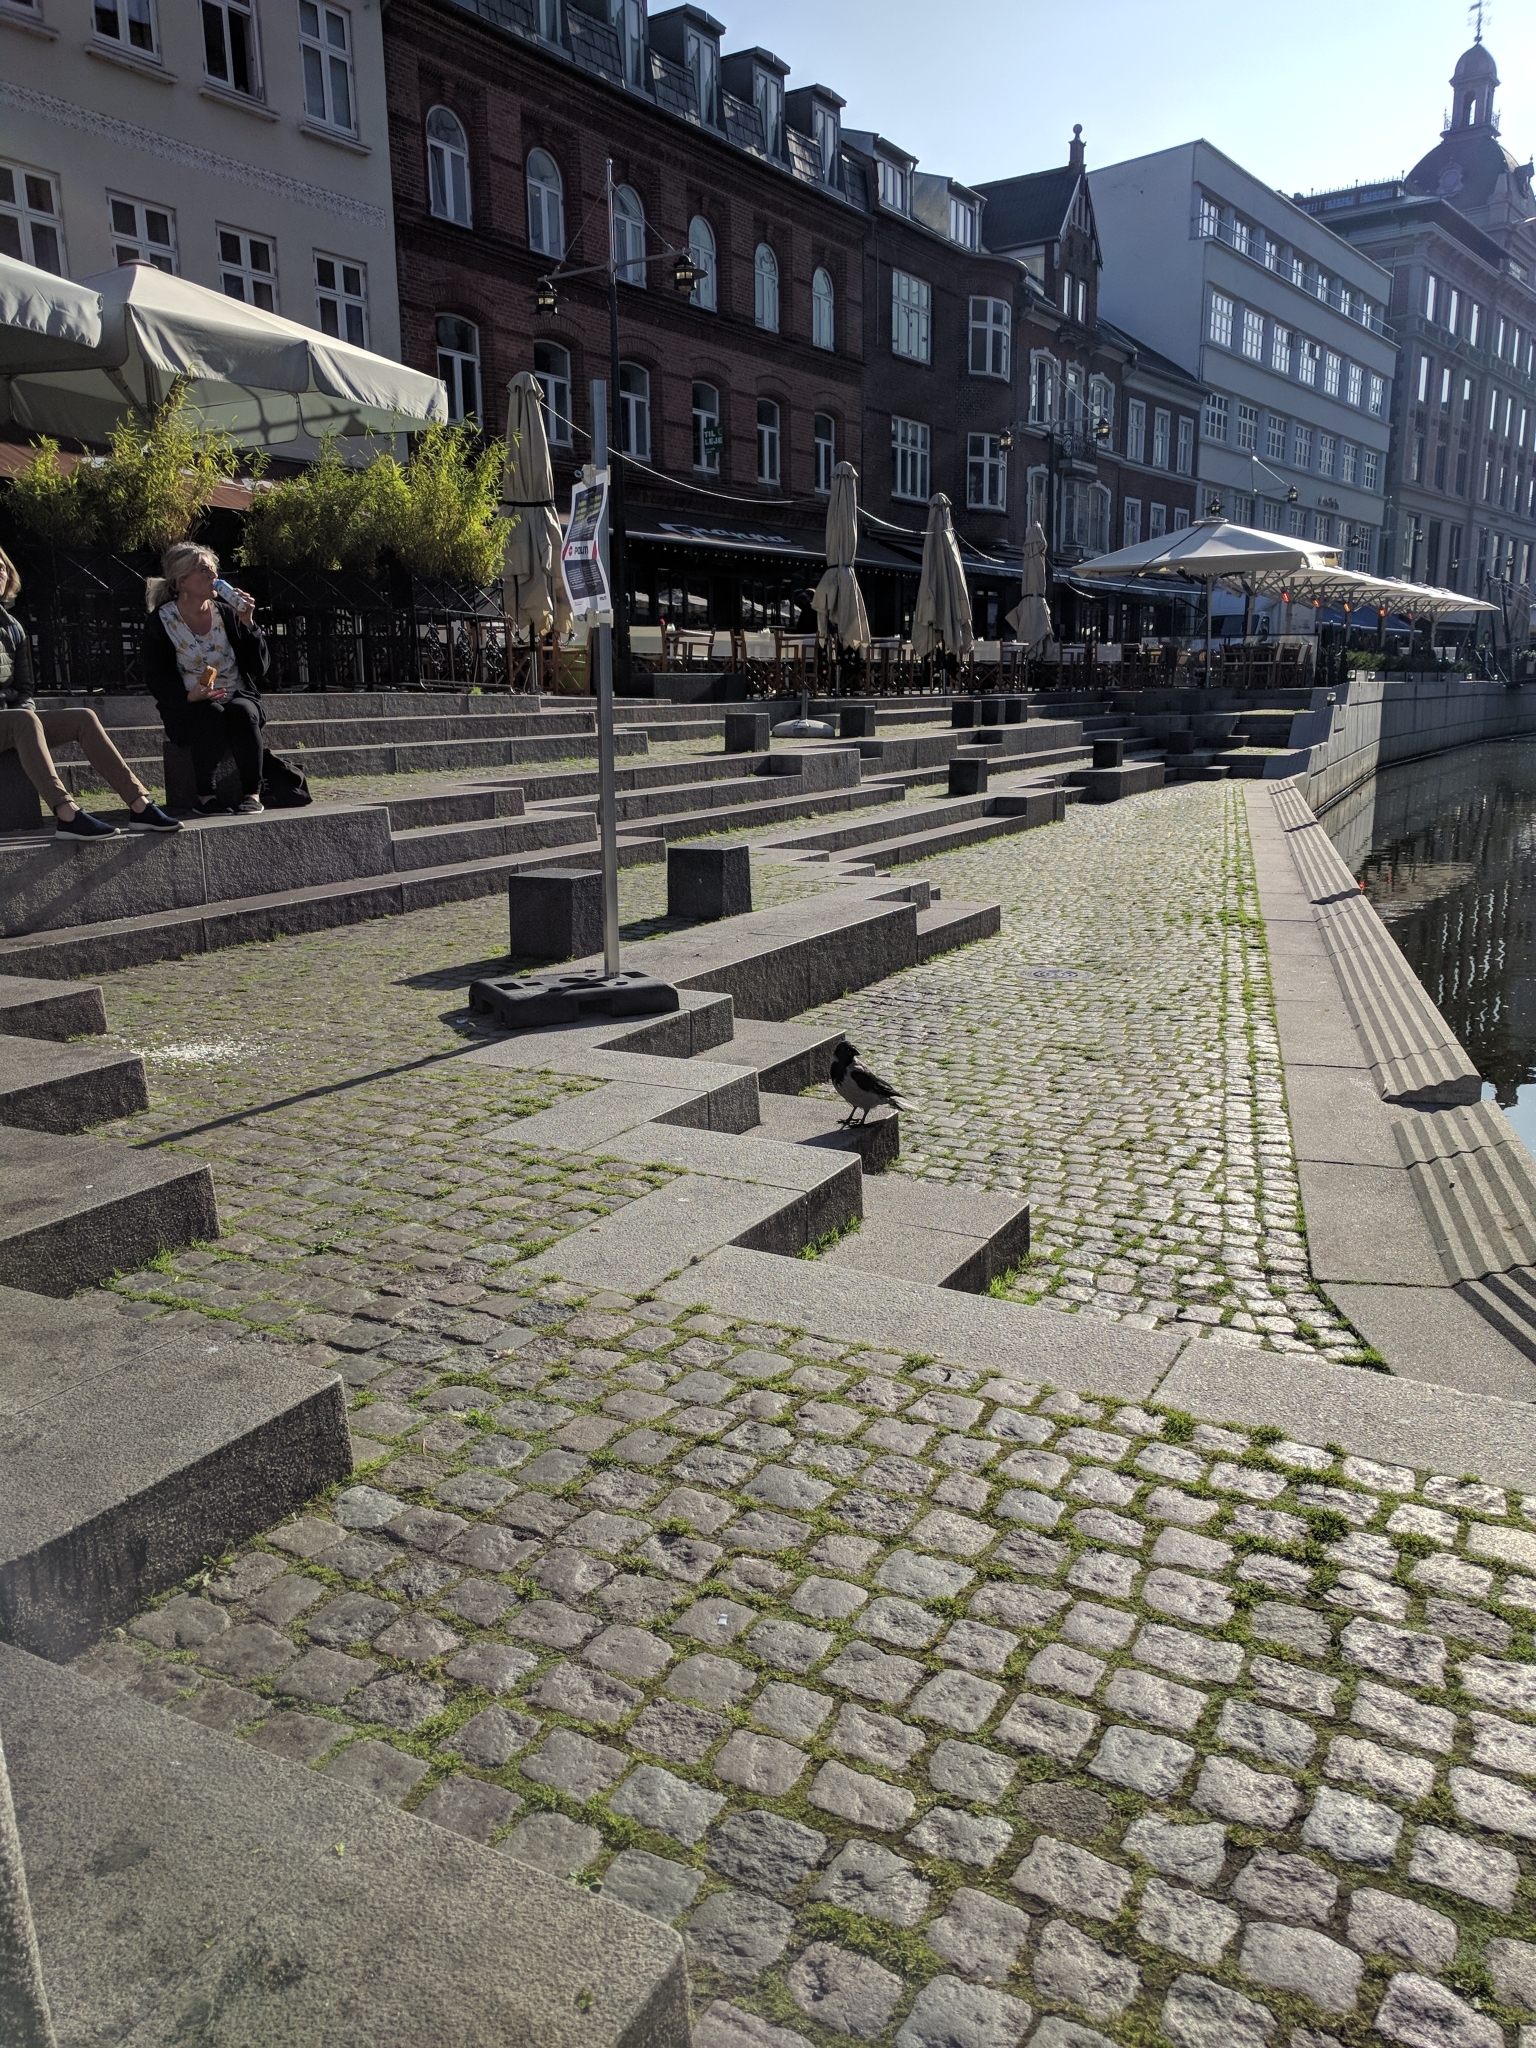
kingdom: Animalia
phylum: Chordata
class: Aves
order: Passeriformes
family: Corvidae
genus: Corvus
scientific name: Corvus cornix
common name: Hooded crow
